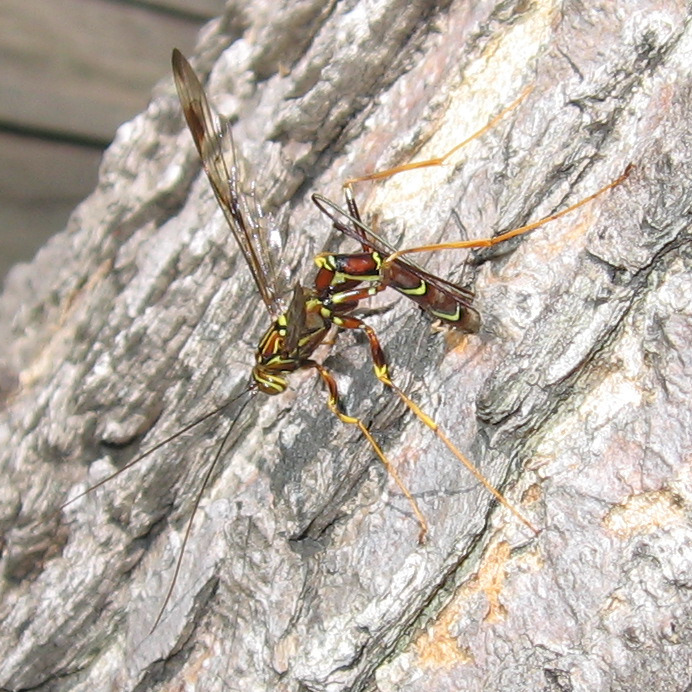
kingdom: Animalia
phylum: Arthropoda
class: Insecta
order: Hymenoptera
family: Ichneumonidae
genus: Megarhyssa
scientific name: Megarhyssa macrura
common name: Long-tailed giant ichneumonid wasp
